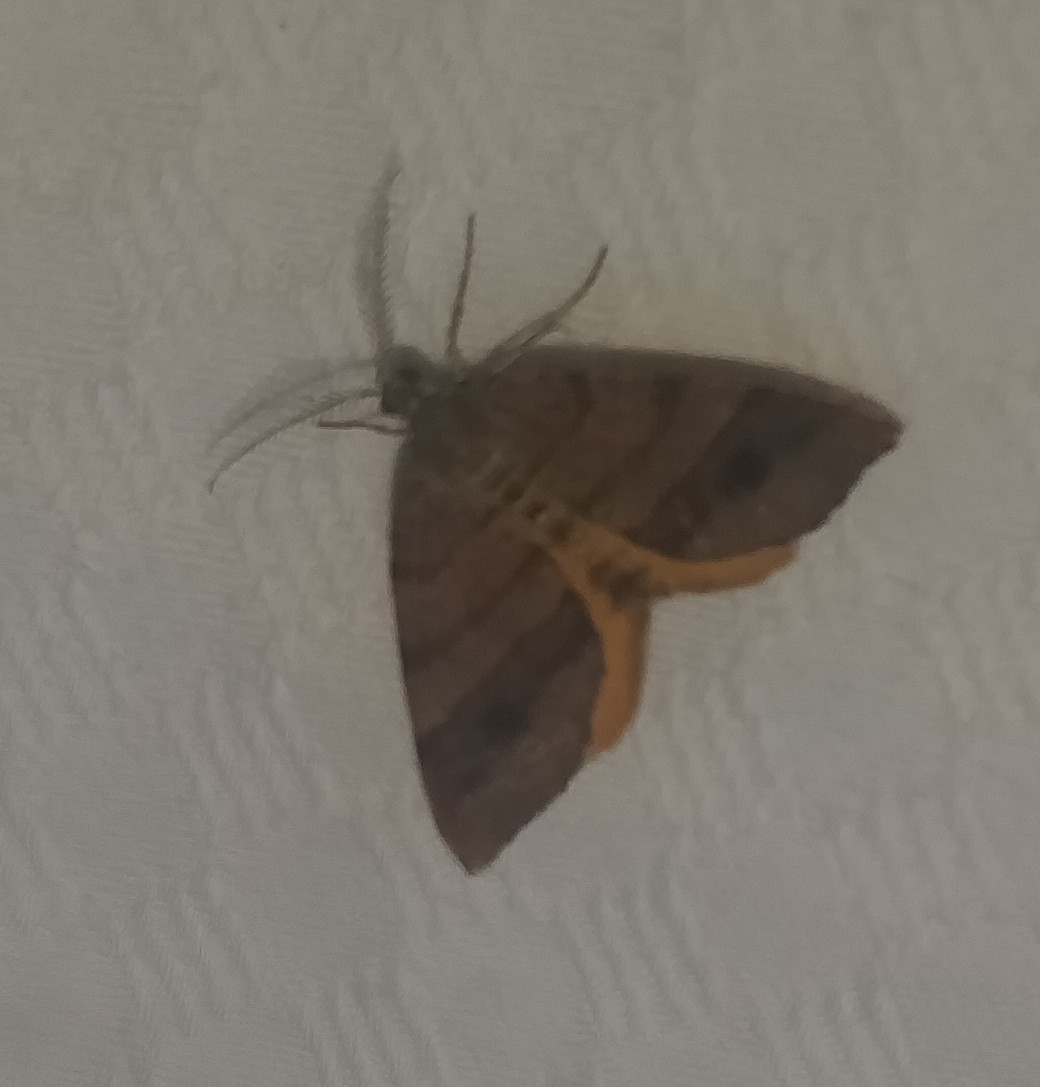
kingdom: Animalia
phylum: Arthropoda
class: Insecta
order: Lepidoptera
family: Geometridae
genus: Mellilla
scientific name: Mellilla xanthometata
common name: Orange wing moth
